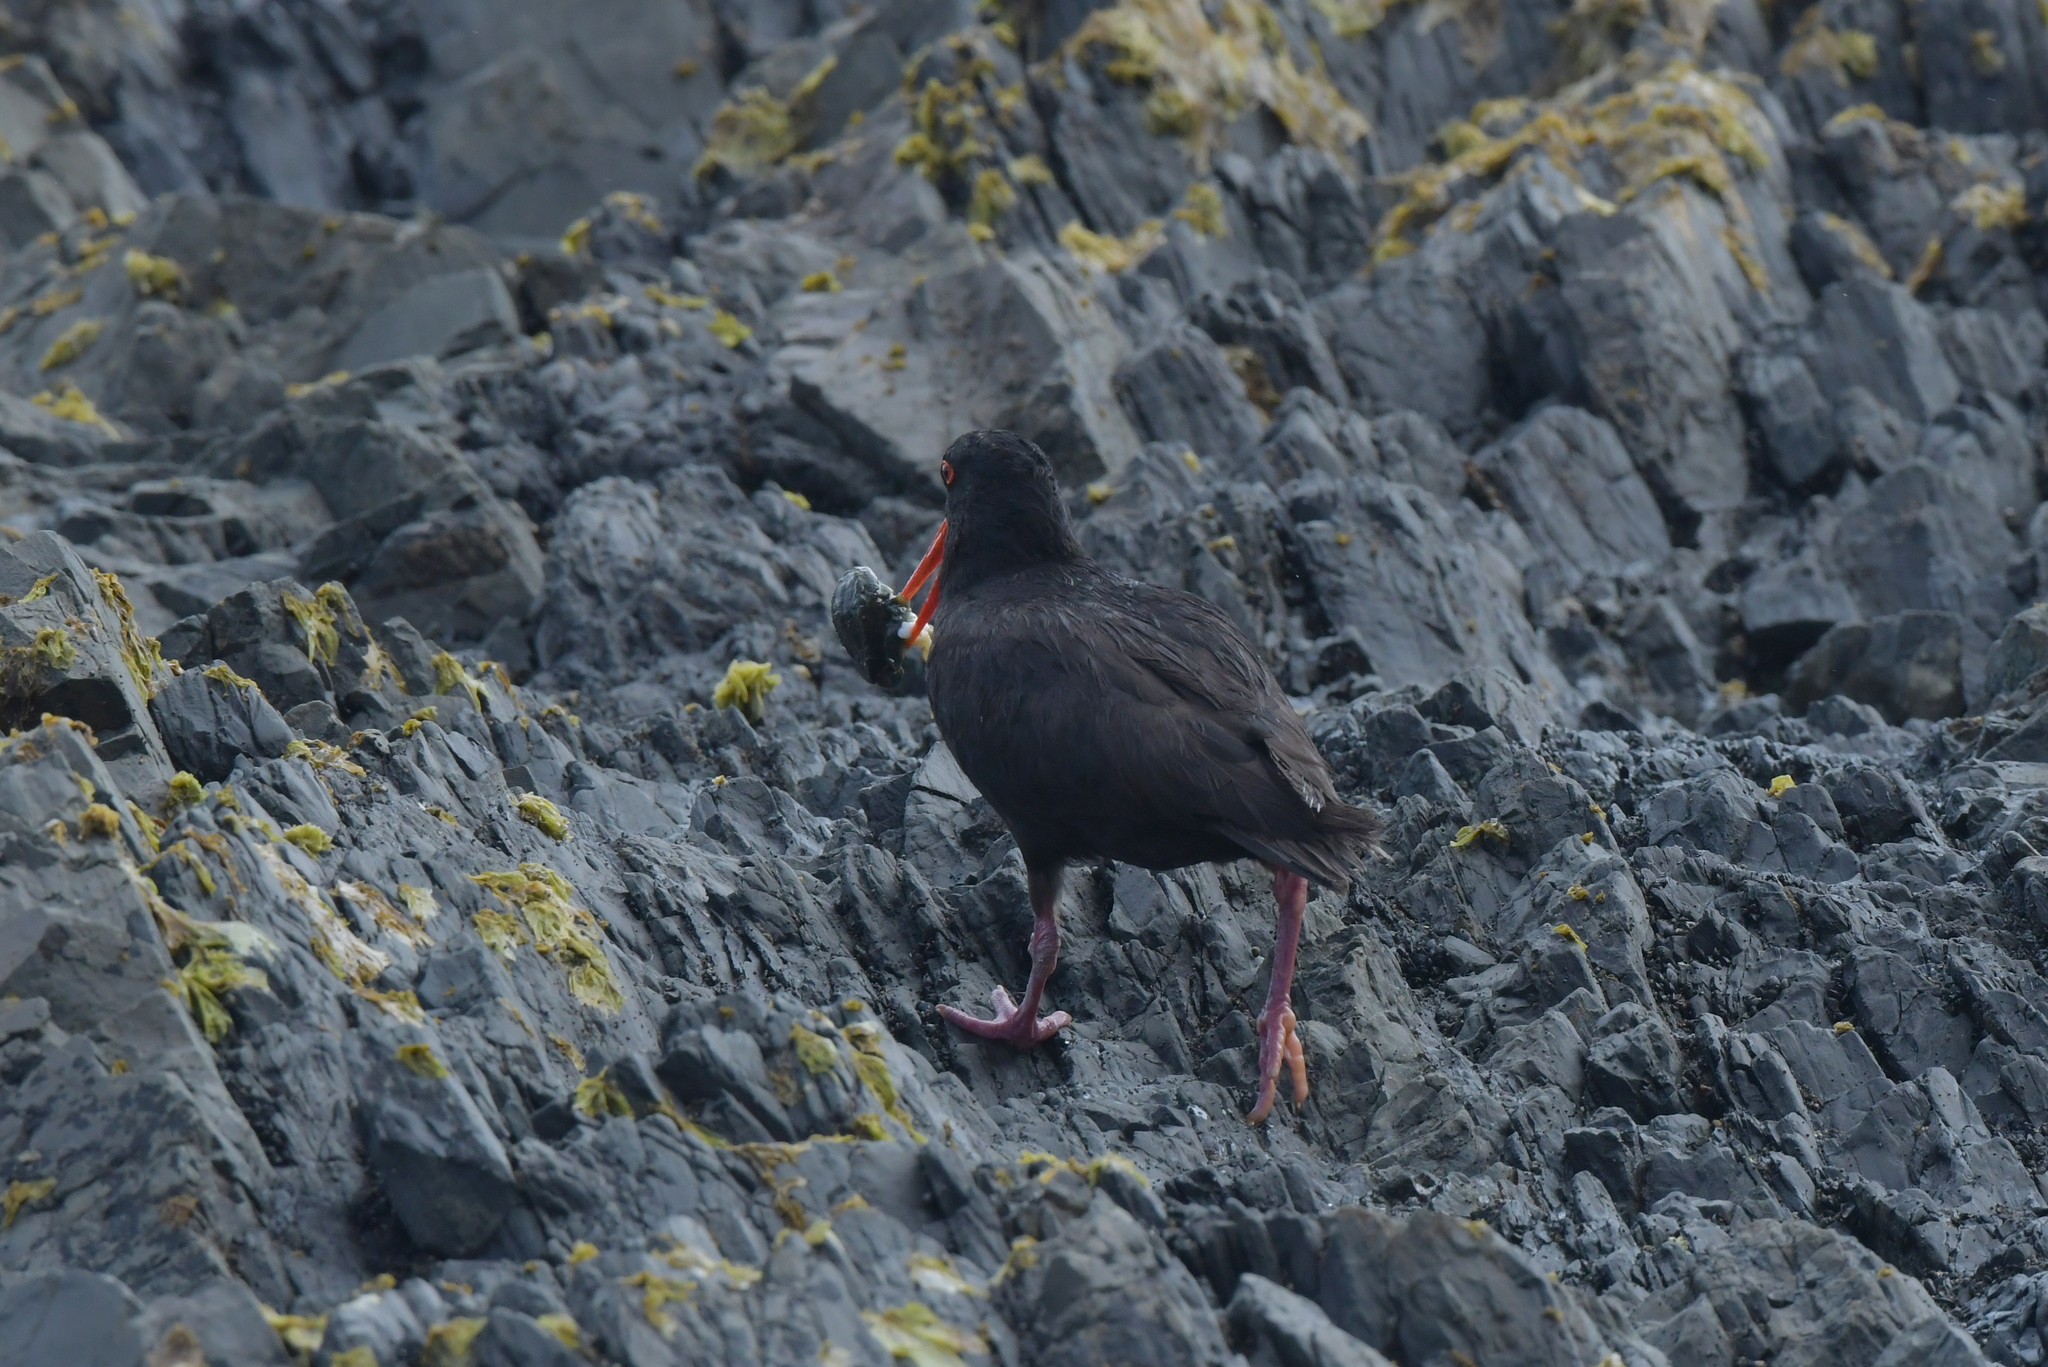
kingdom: Animalia
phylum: Chordata
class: Aves
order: Charadriiformes
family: Haematopodidae
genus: Haematopus
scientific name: Haematopus unicolor
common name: Variable oystercatcher
